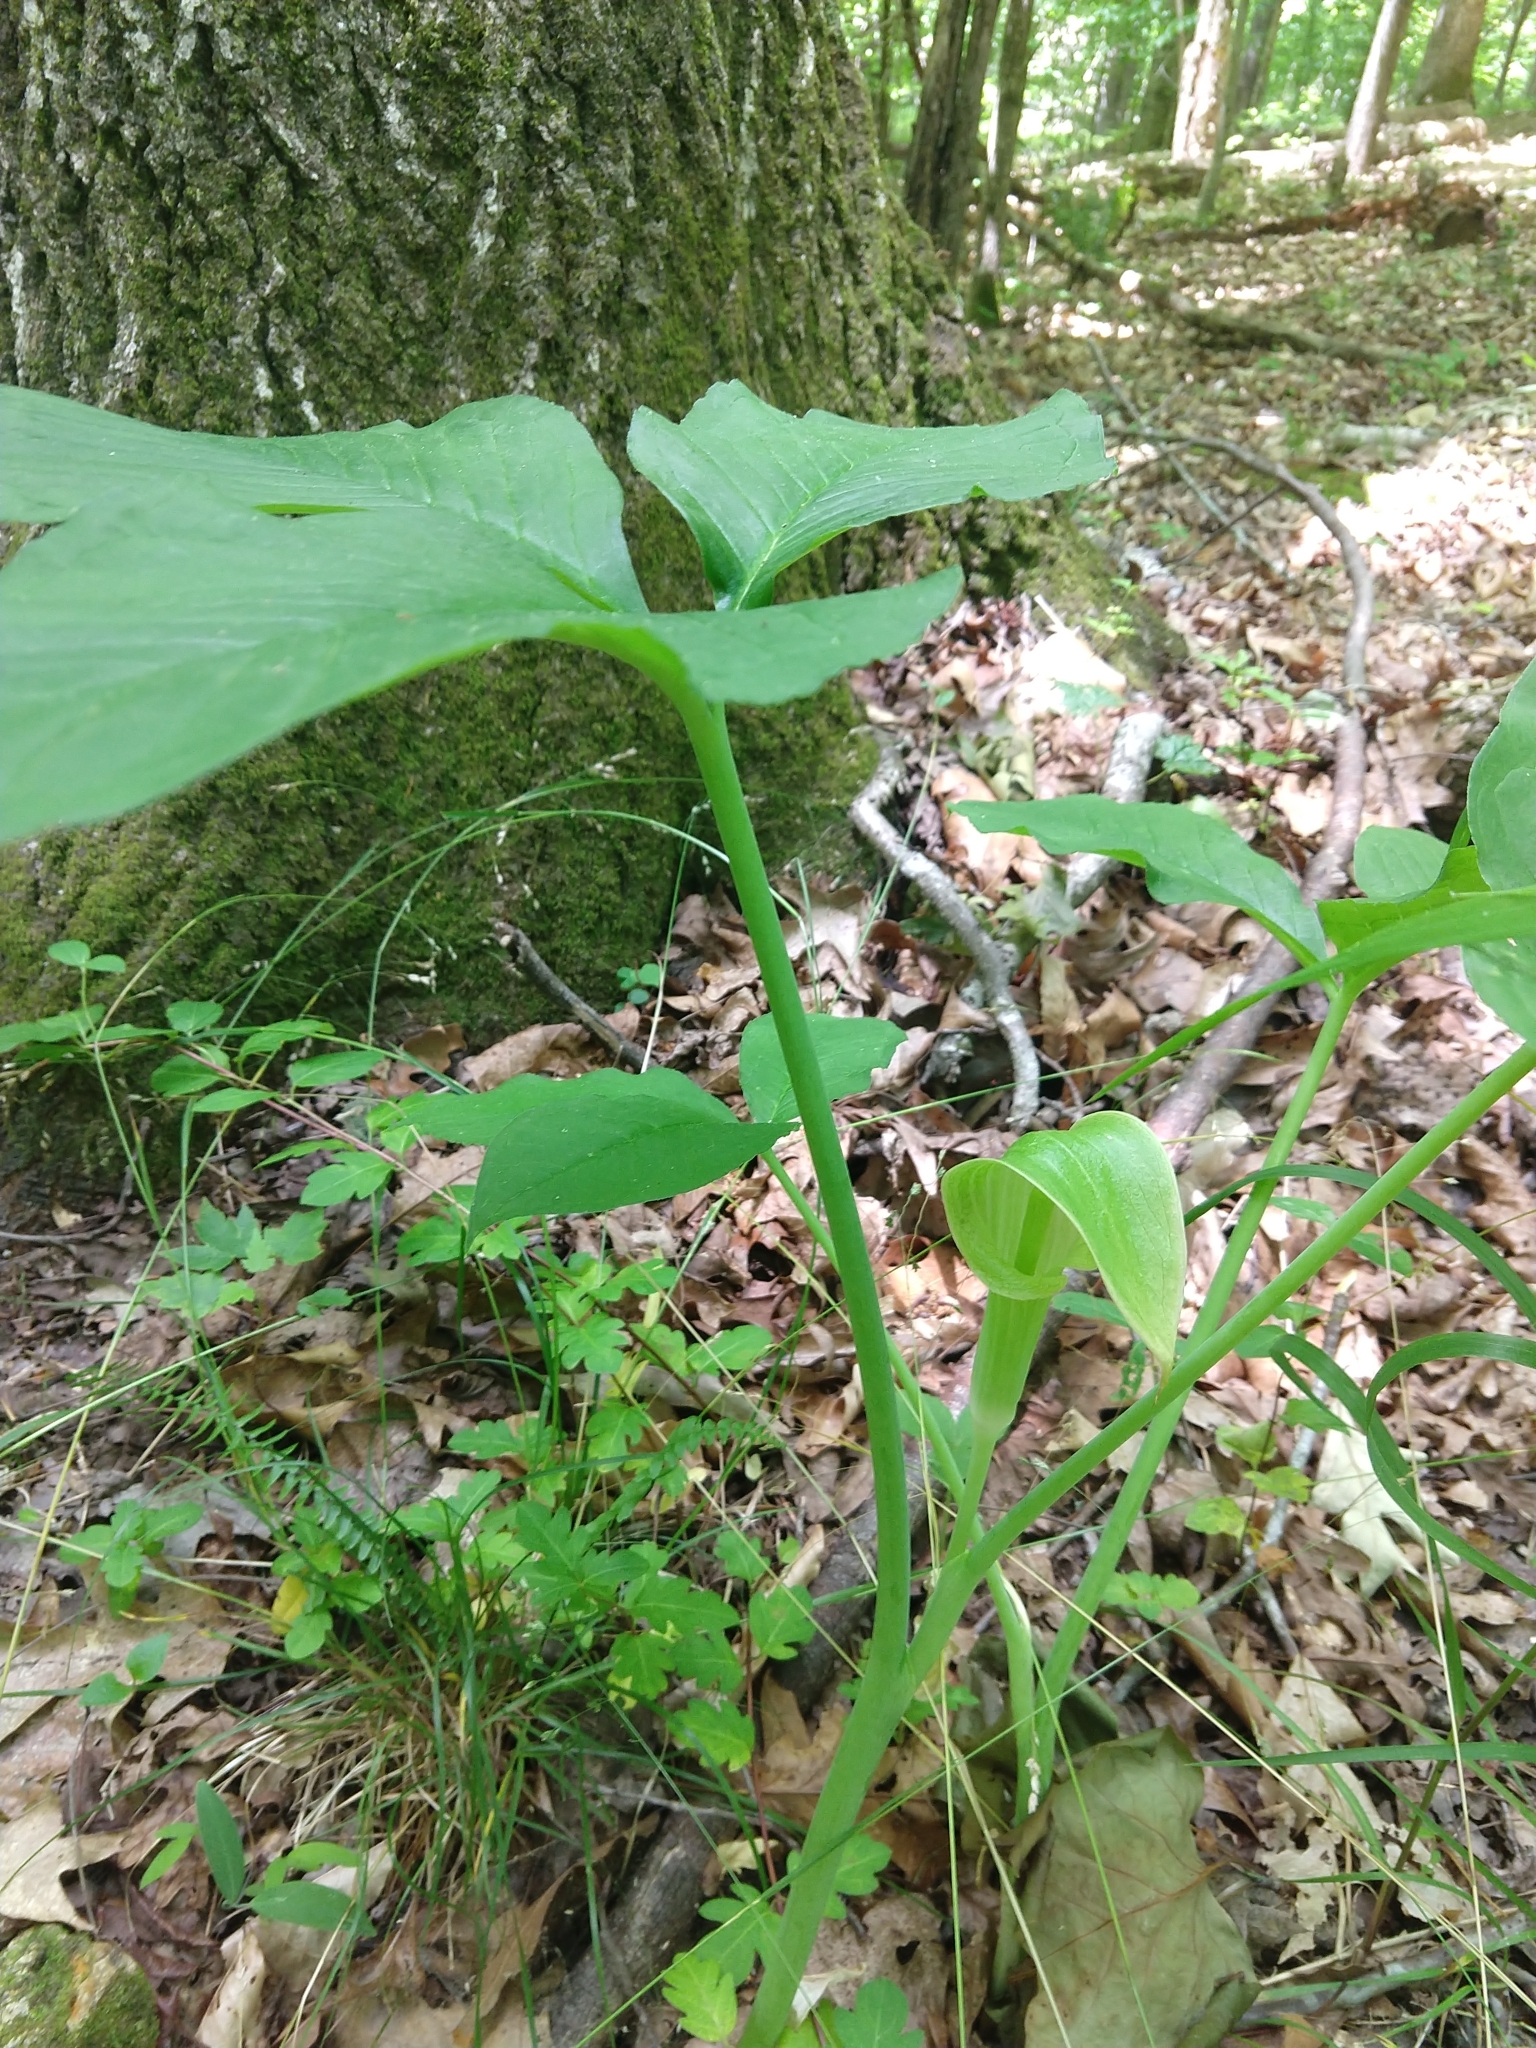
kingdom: Plantae
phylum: Tracheophyta
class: Liliopsida
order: Alismatales
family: Araceae
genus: Arisaema
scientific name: Arisaema triphyllum
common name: Jack-in-the-pulpit
